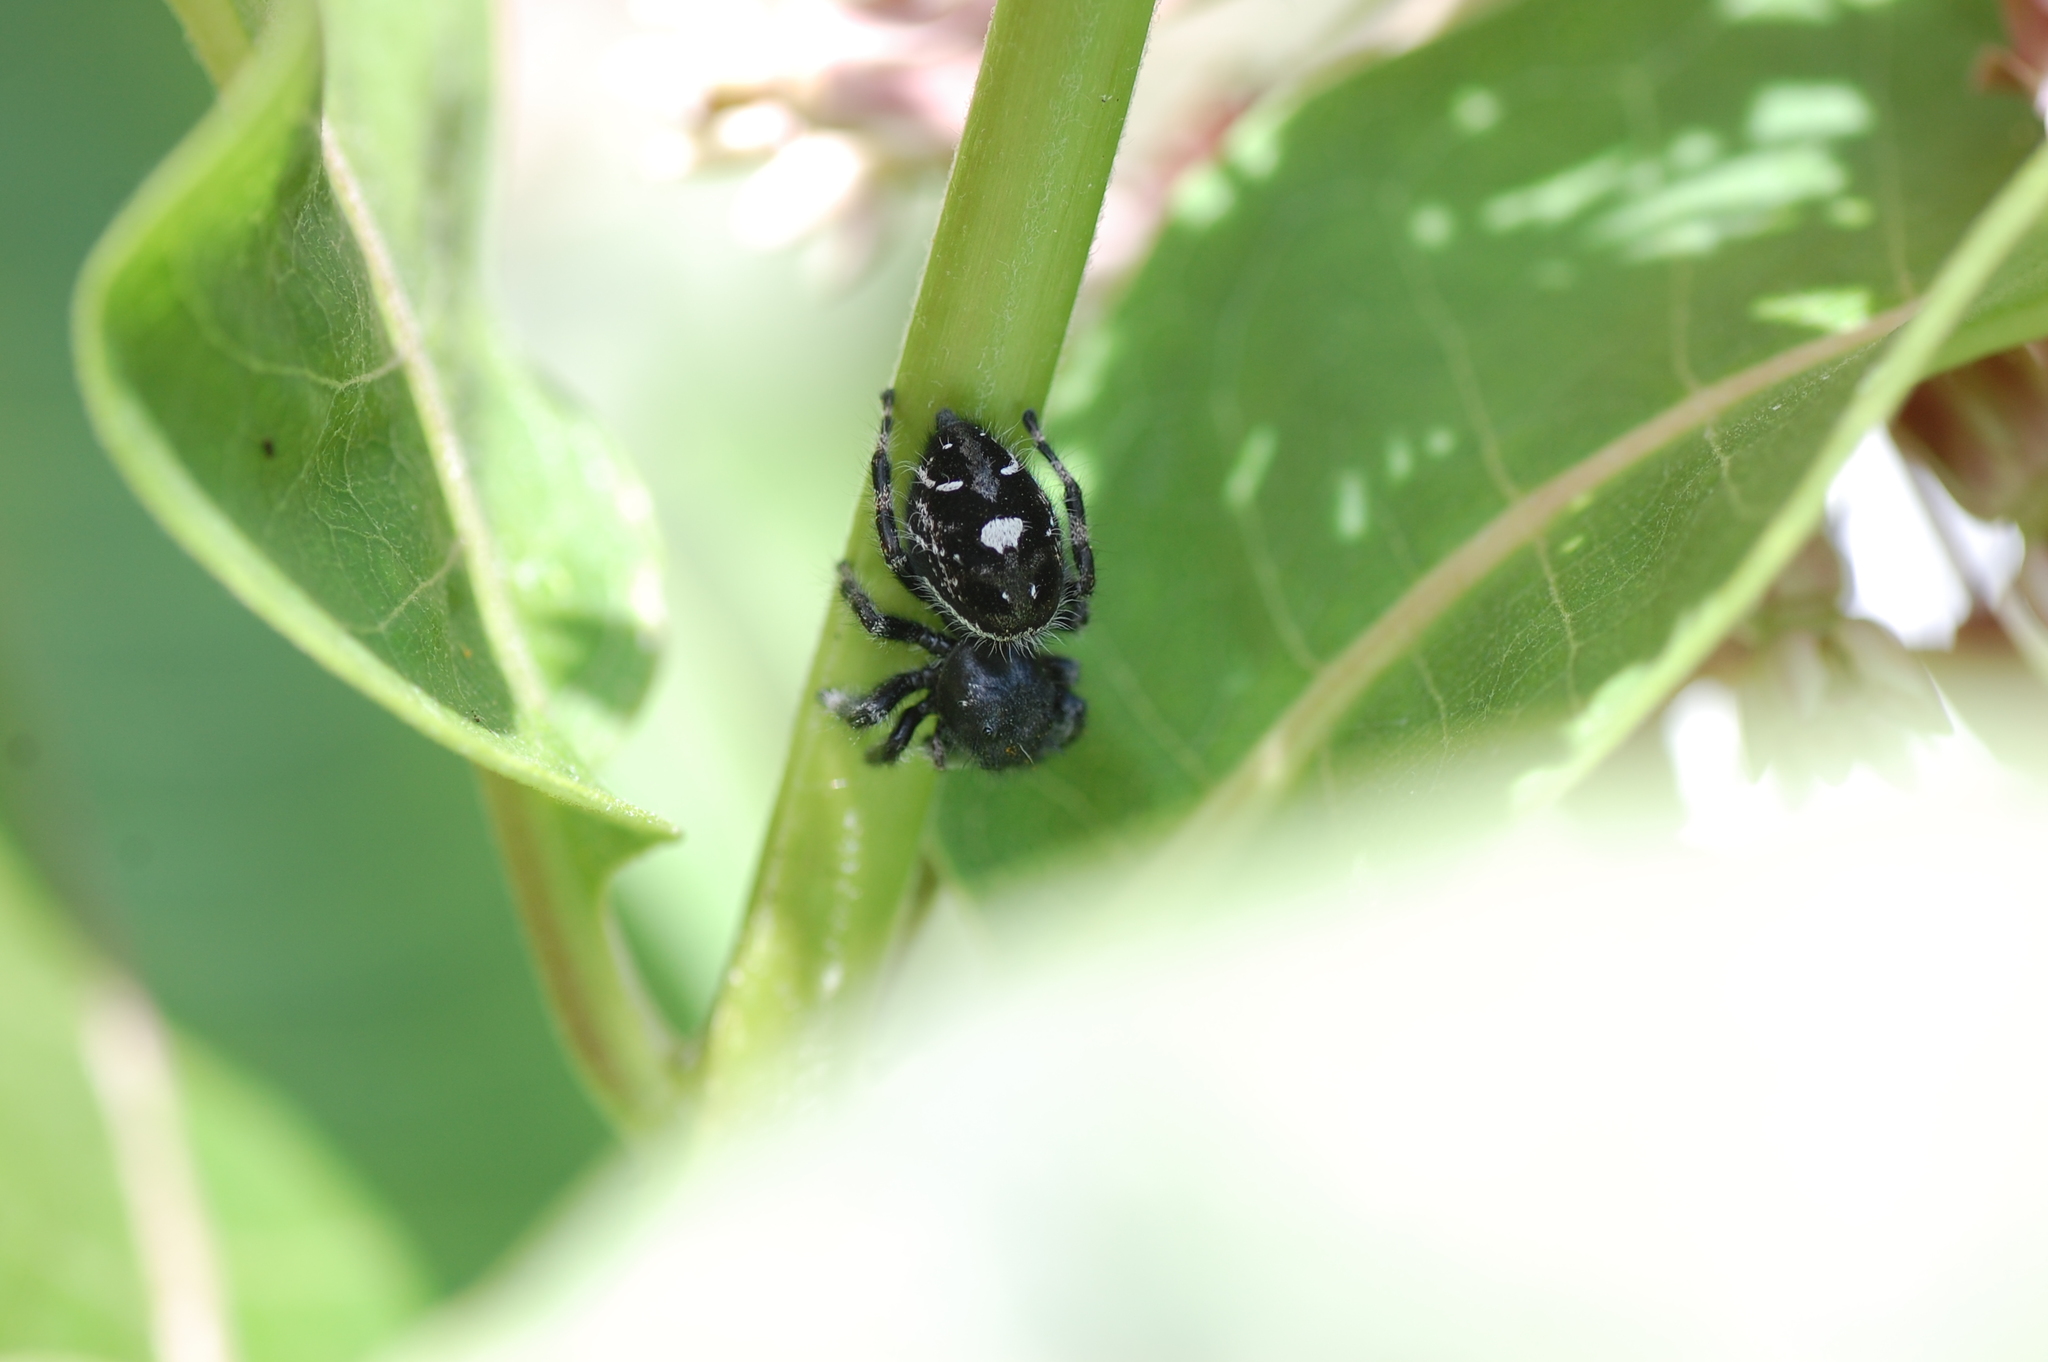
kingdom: Animalia
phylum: Arthropoda
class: Arachnida
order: Araneae
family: Salticidae
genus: Phidippus
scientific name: Phidippus audax
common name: Bold jumper
